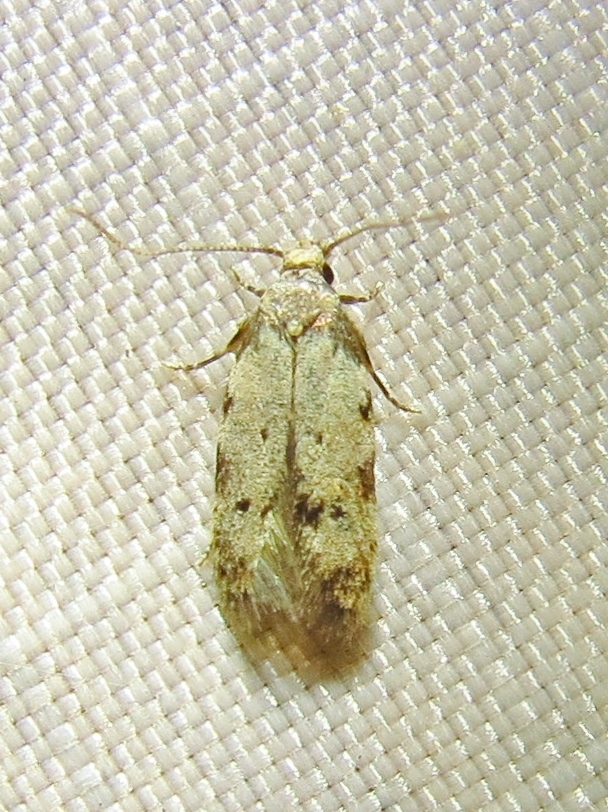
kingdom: Animalia
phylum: Arthropoda
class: Insecta
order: Lepidoptera
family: Autostichidae
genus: Taygete
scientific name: Taygete attributella
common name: Triangle-marked twirler moth
